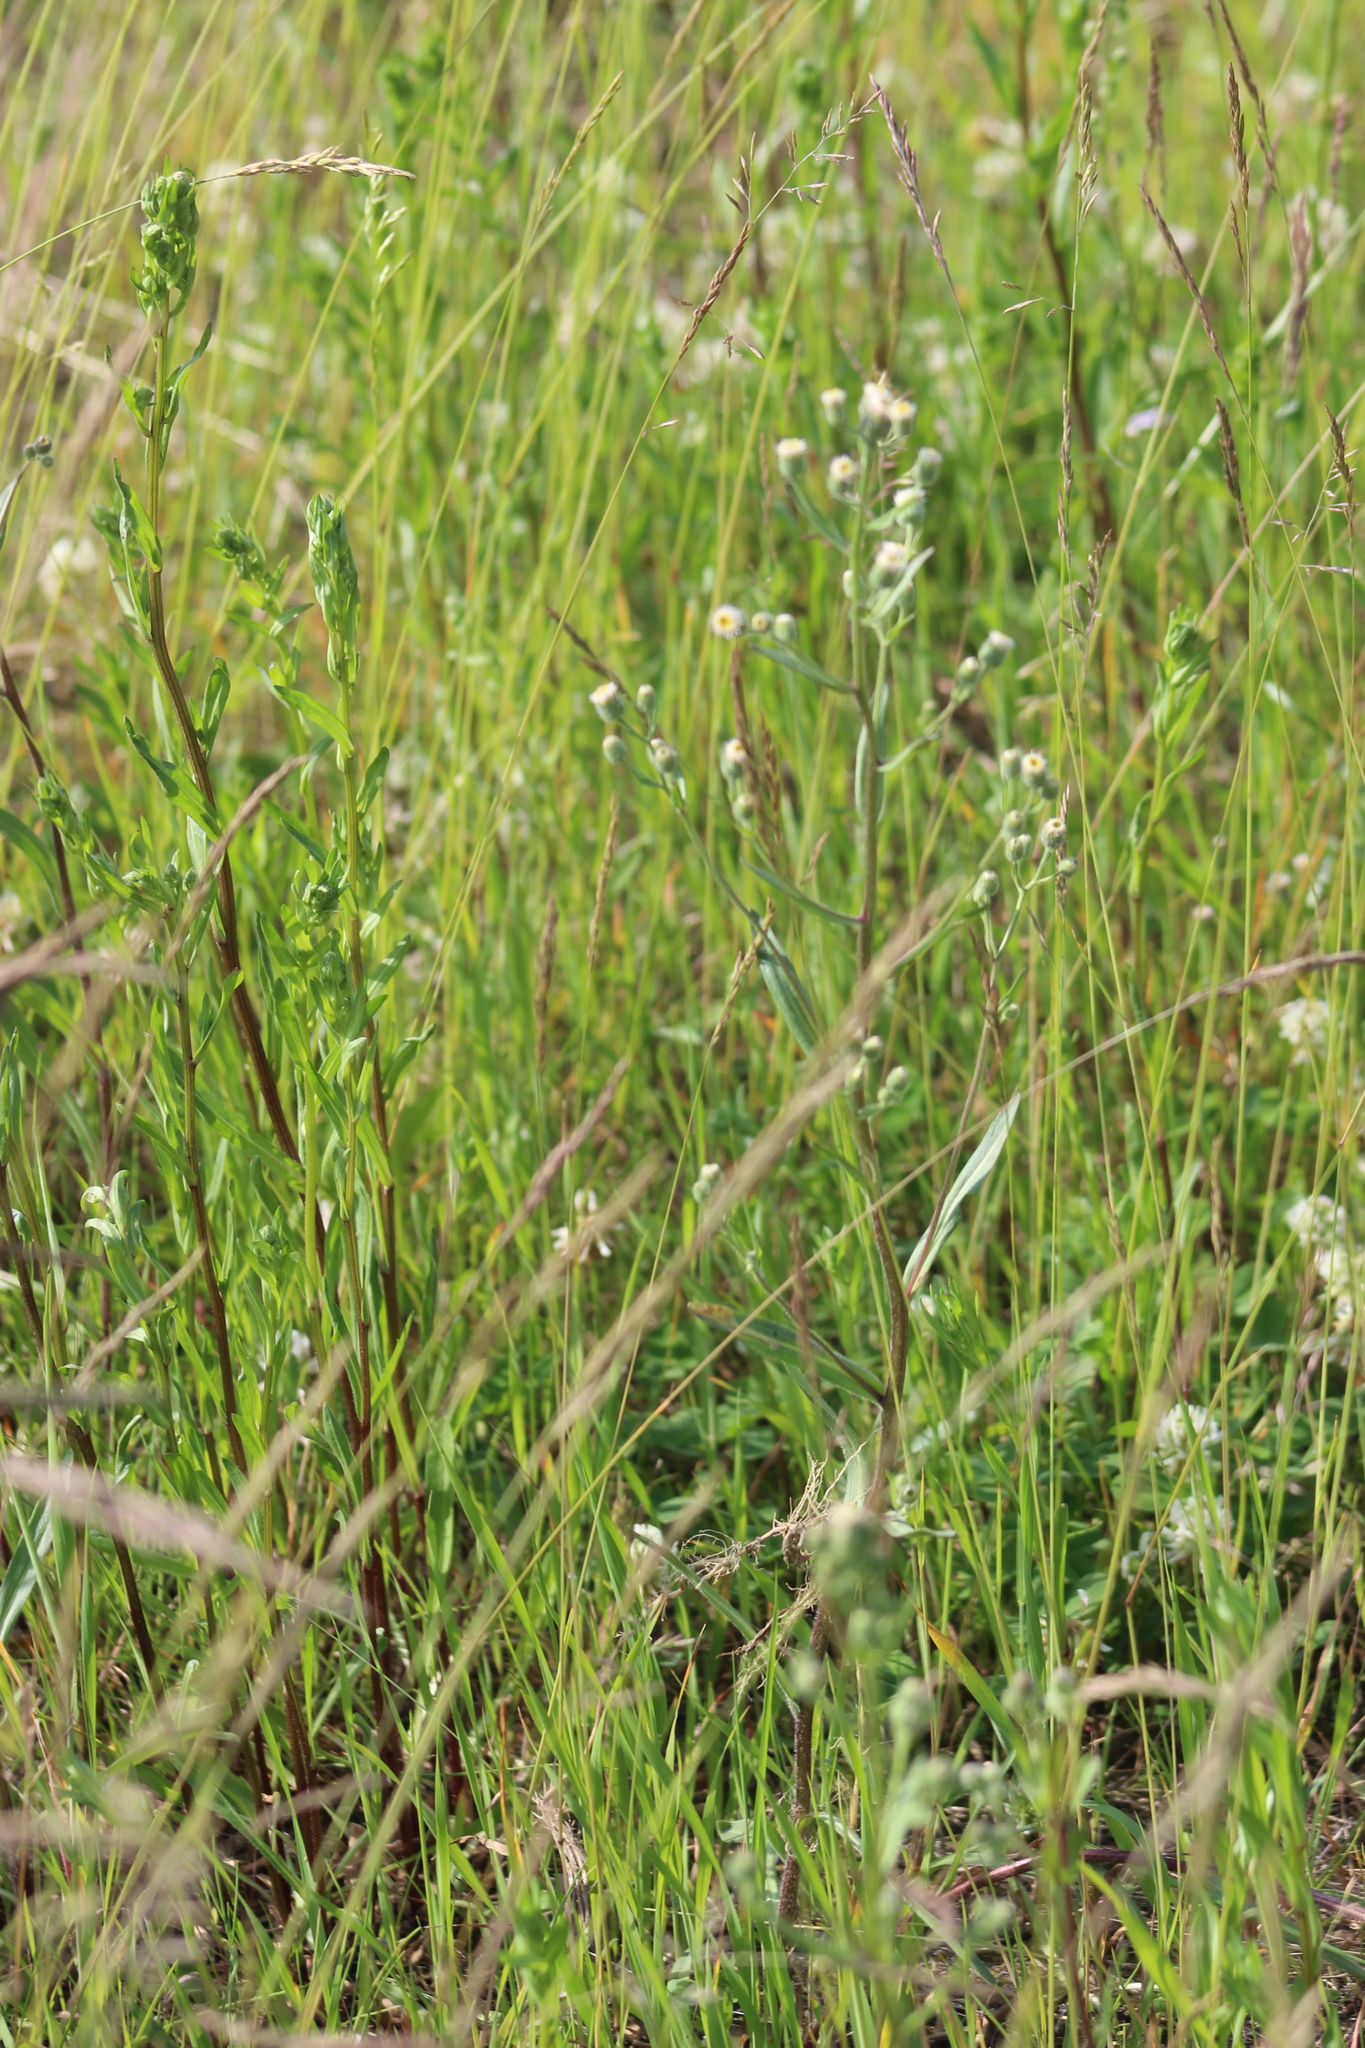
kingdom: Plantae
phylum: Tracheophyta
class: Magnoliopsida
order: Asterales
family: Asteraceae
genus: Erigeron
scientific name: Erigeron acris
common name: Blue fleabane
